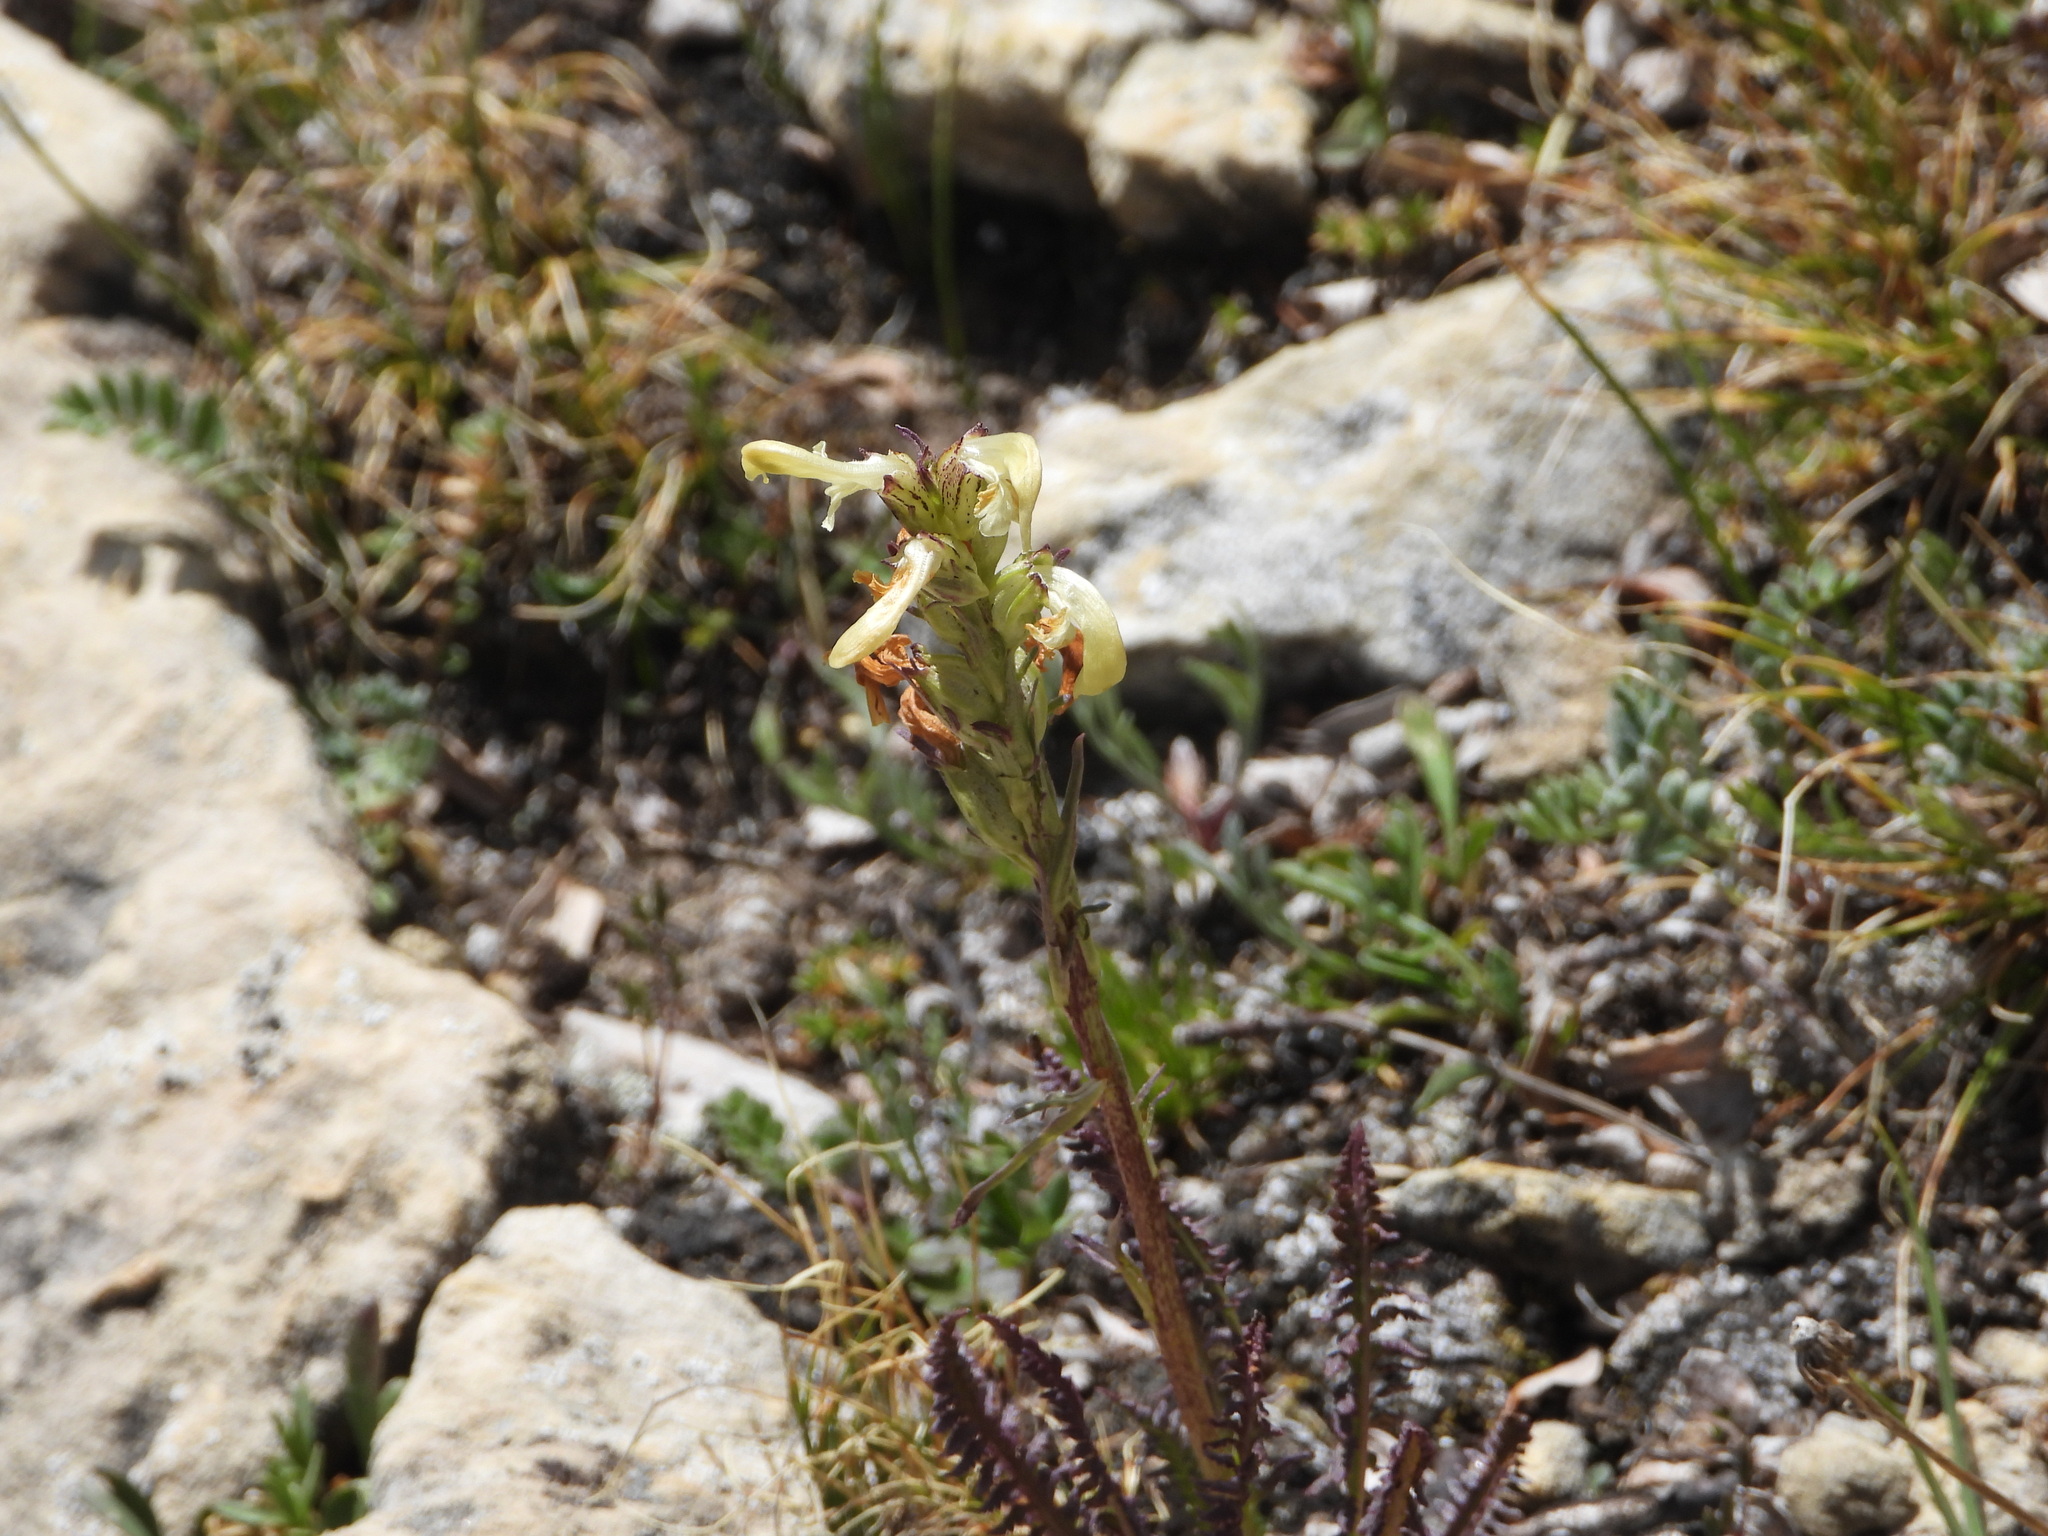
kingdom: Plantae
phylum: Tracheophyta
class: Magnoliopsida
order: Lamiales
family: Orobanchaceae
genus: Pedicularis
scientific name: Pedicularis parryi
